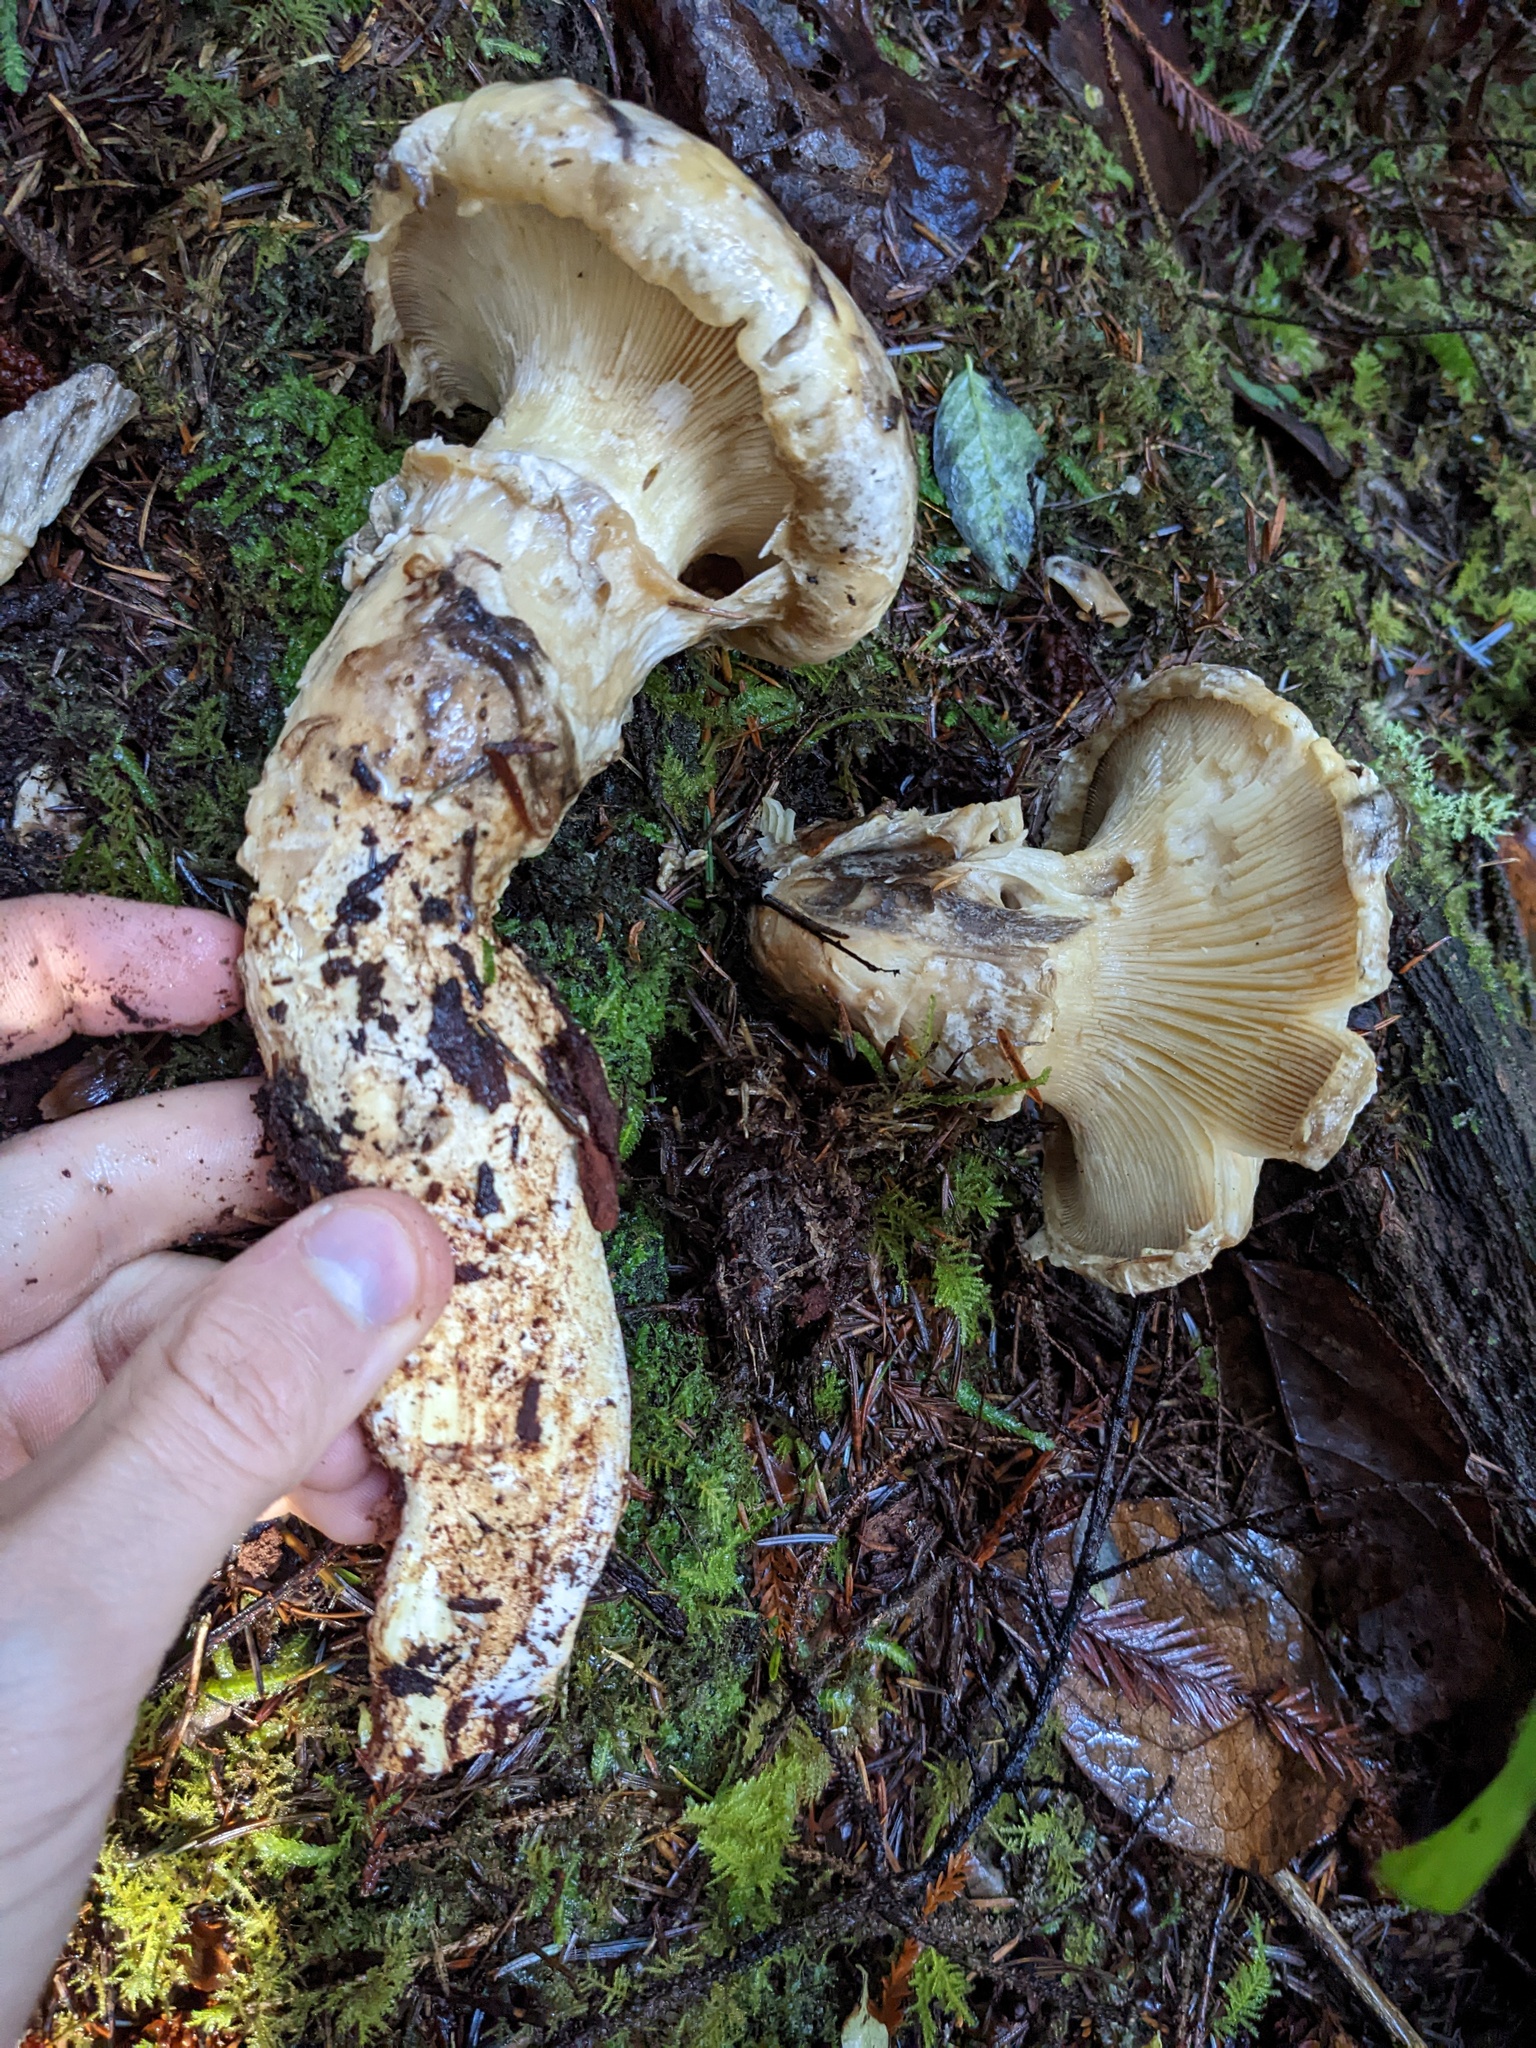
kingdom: Fungi
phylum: Basidiomycota
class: Agaricomycetes
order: Agaricales
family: Biannulariaceae
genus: Catathelasma
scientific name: Catathelasma ventricosum
